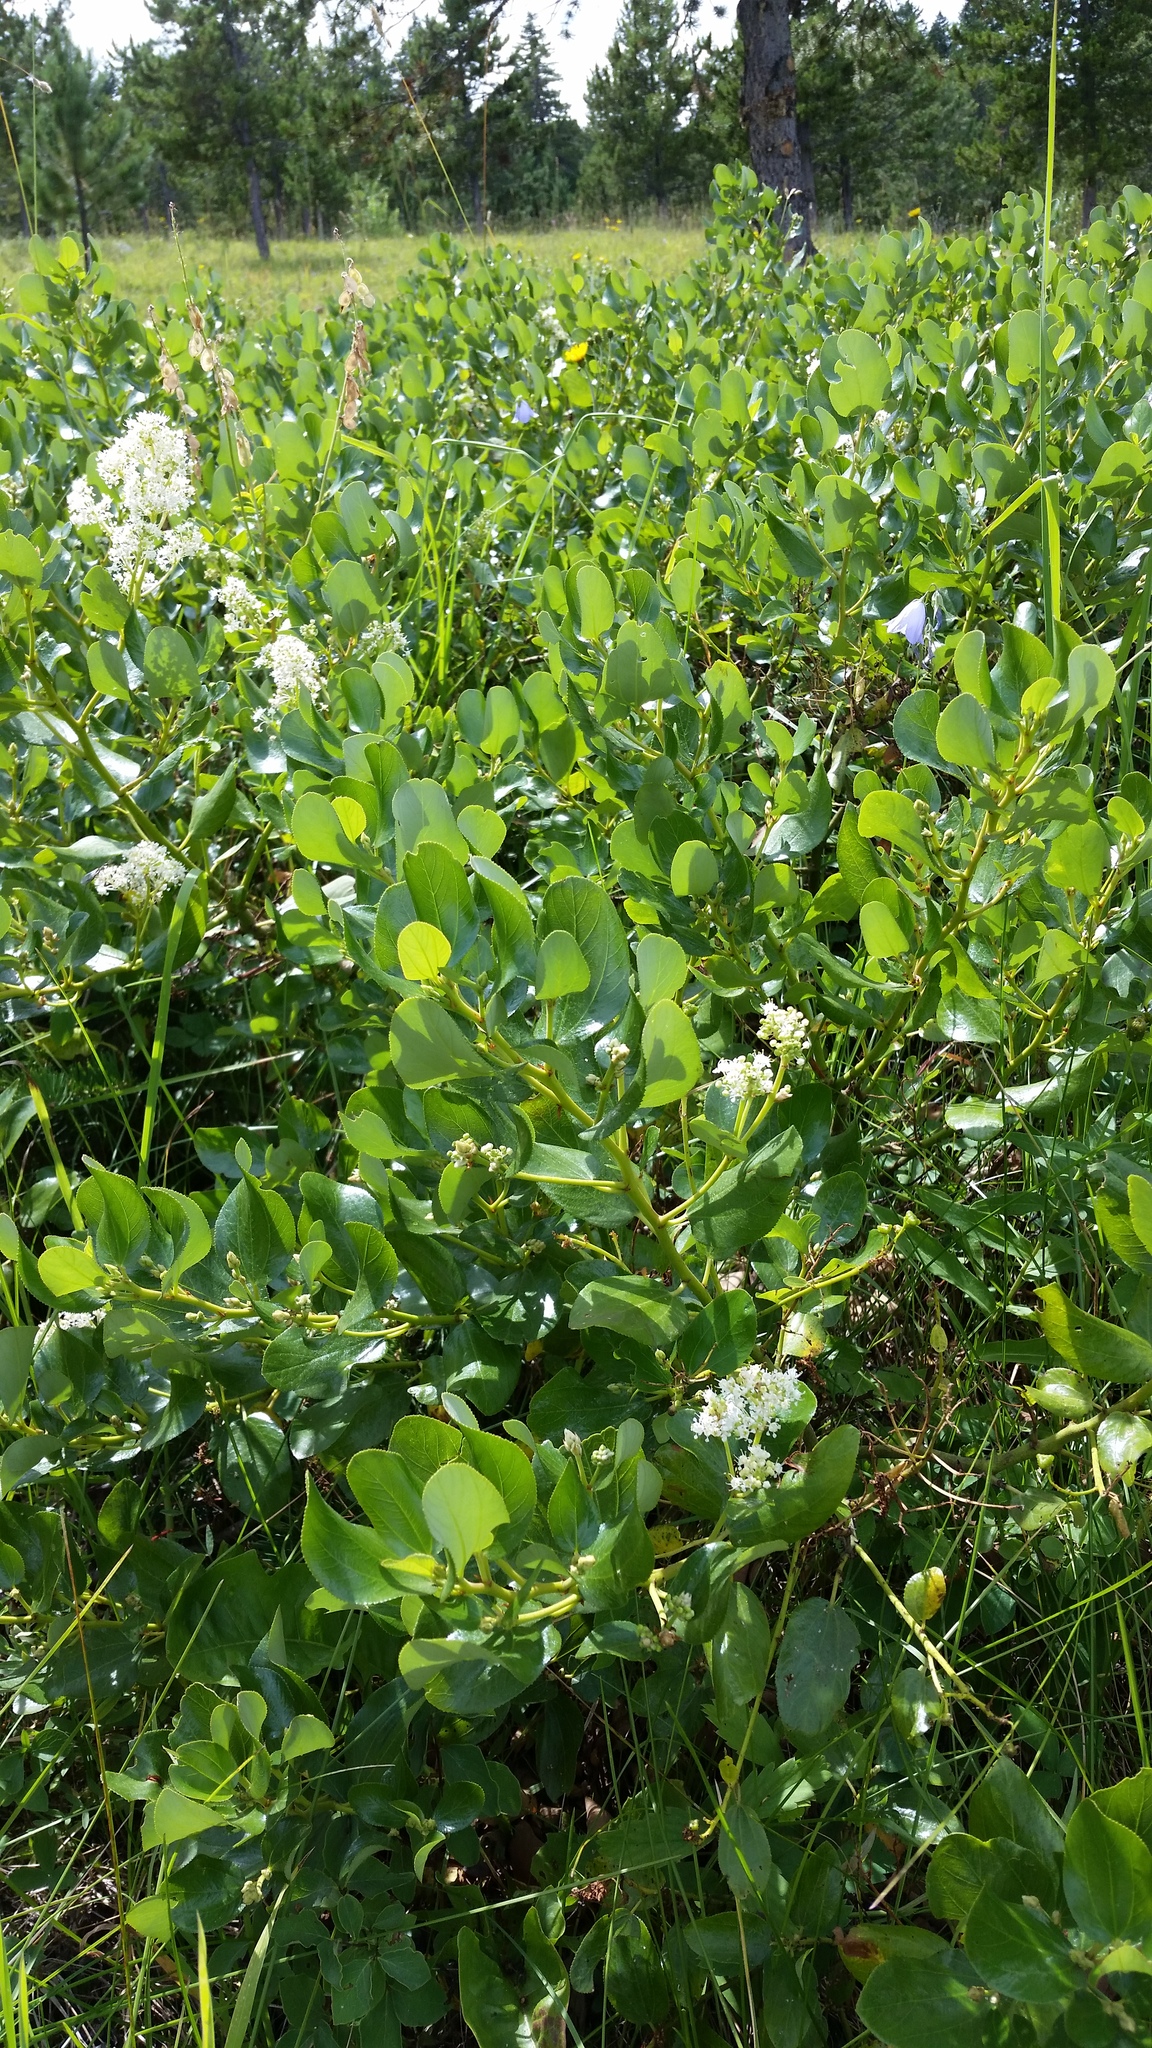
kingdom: Plantae
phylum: Tracheophyta
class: Magnoliopsida
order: Rosales
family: Rhamnaceae
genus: Ceanothus
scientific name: Ceanothus velutinus
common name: Snowbrush
